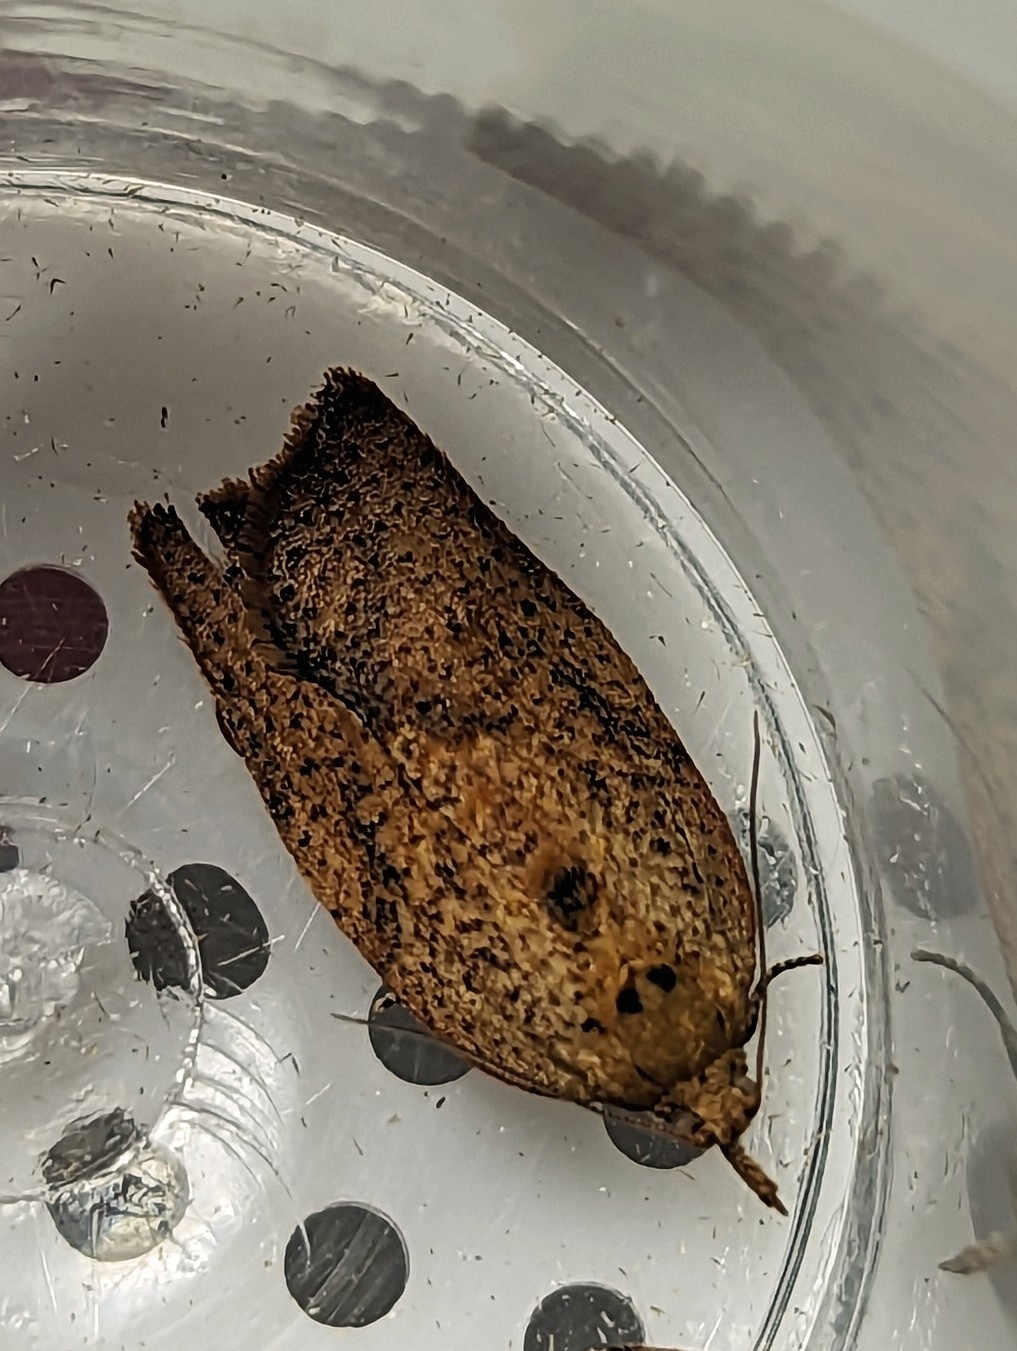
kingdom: Animalia
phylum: Arthropoda
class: Insecta
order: Lepidoptera
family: Tortricidae
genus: Epiphyas
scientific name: Epiphyas postvittana
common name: Light brown apple moth
